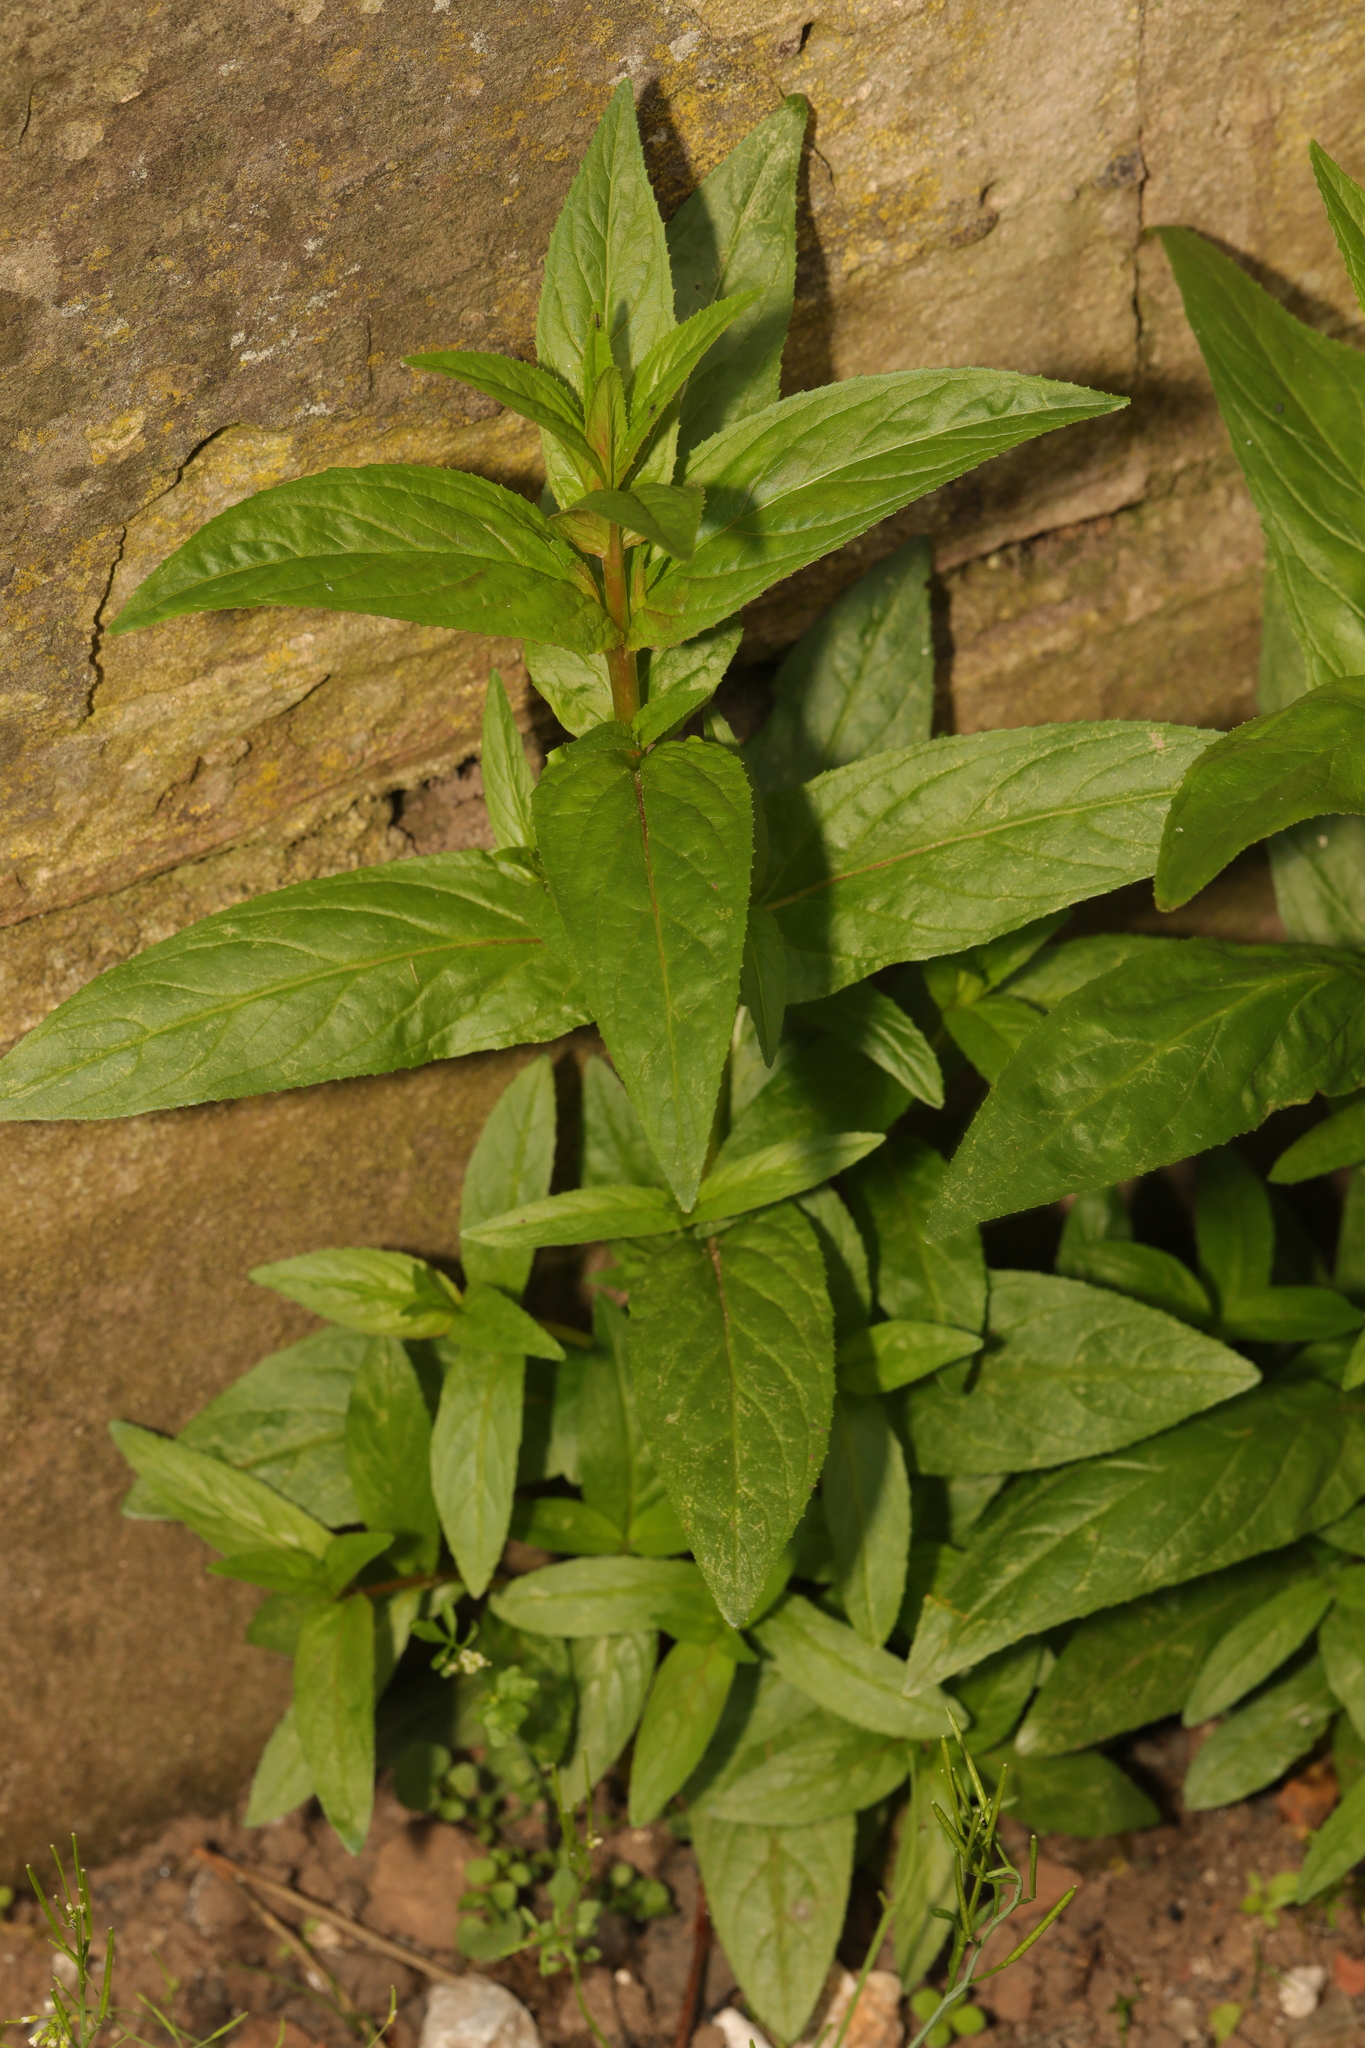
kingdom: Plantae
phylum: Tracheophyta
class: Magnoliopsida
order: Myrtales
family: Onagraceae
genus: Epilobium
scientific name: Epilobium montanum
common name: Broad-leaved willowherb
